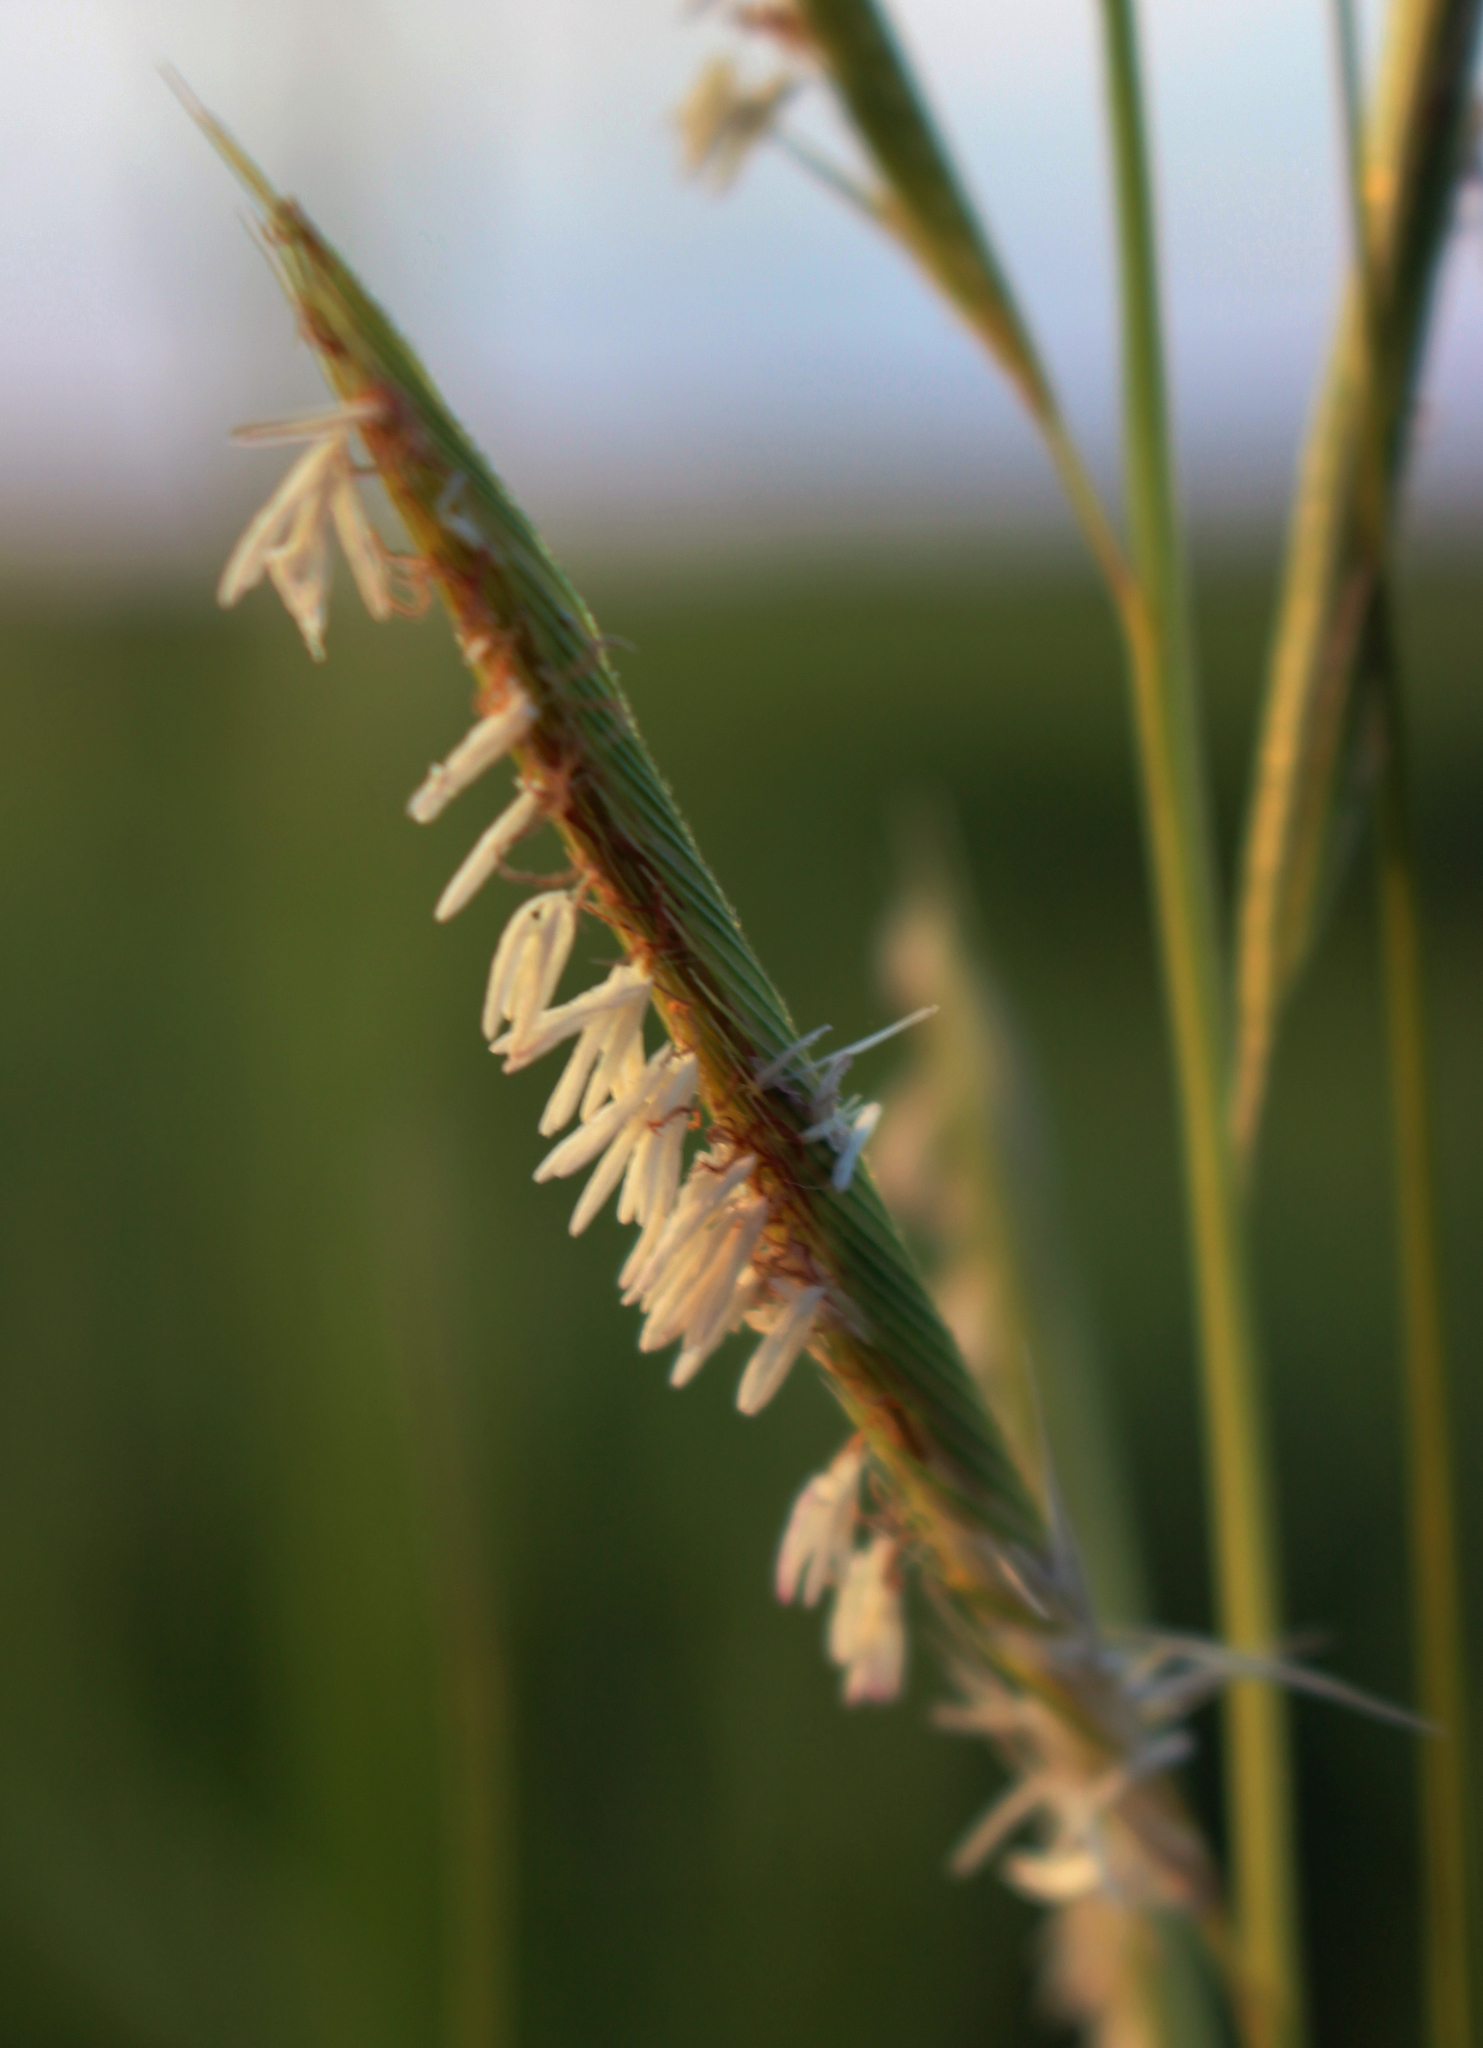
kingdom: Plantae
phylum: Tracheophyta
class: Liliopsida
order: Poales
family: Poaceae
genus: Sporobolus
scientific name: Sporobolus michauxianus
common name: Freshwater cordgrass
